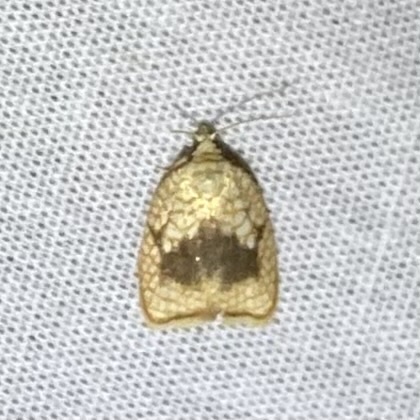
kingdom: Animalia
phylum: Arthropoda
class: Insecta
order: Lepidoptera
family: Tortricidae
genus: Acleris
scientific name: Acleris forsskaleana
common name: Maple button
